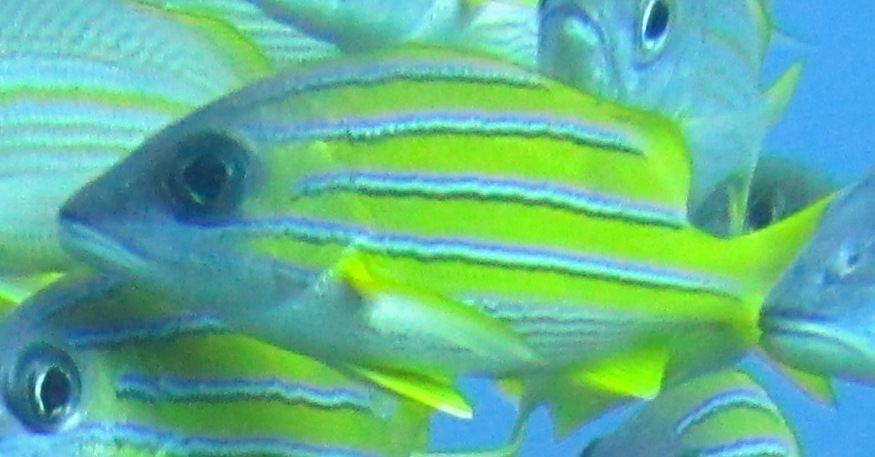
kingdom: Animalia
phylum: Chordata
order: Perciformes
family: Lutjanidae
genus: Lutjanus
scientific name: Lutjanus kasmira
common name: Common bluestripe snapper
